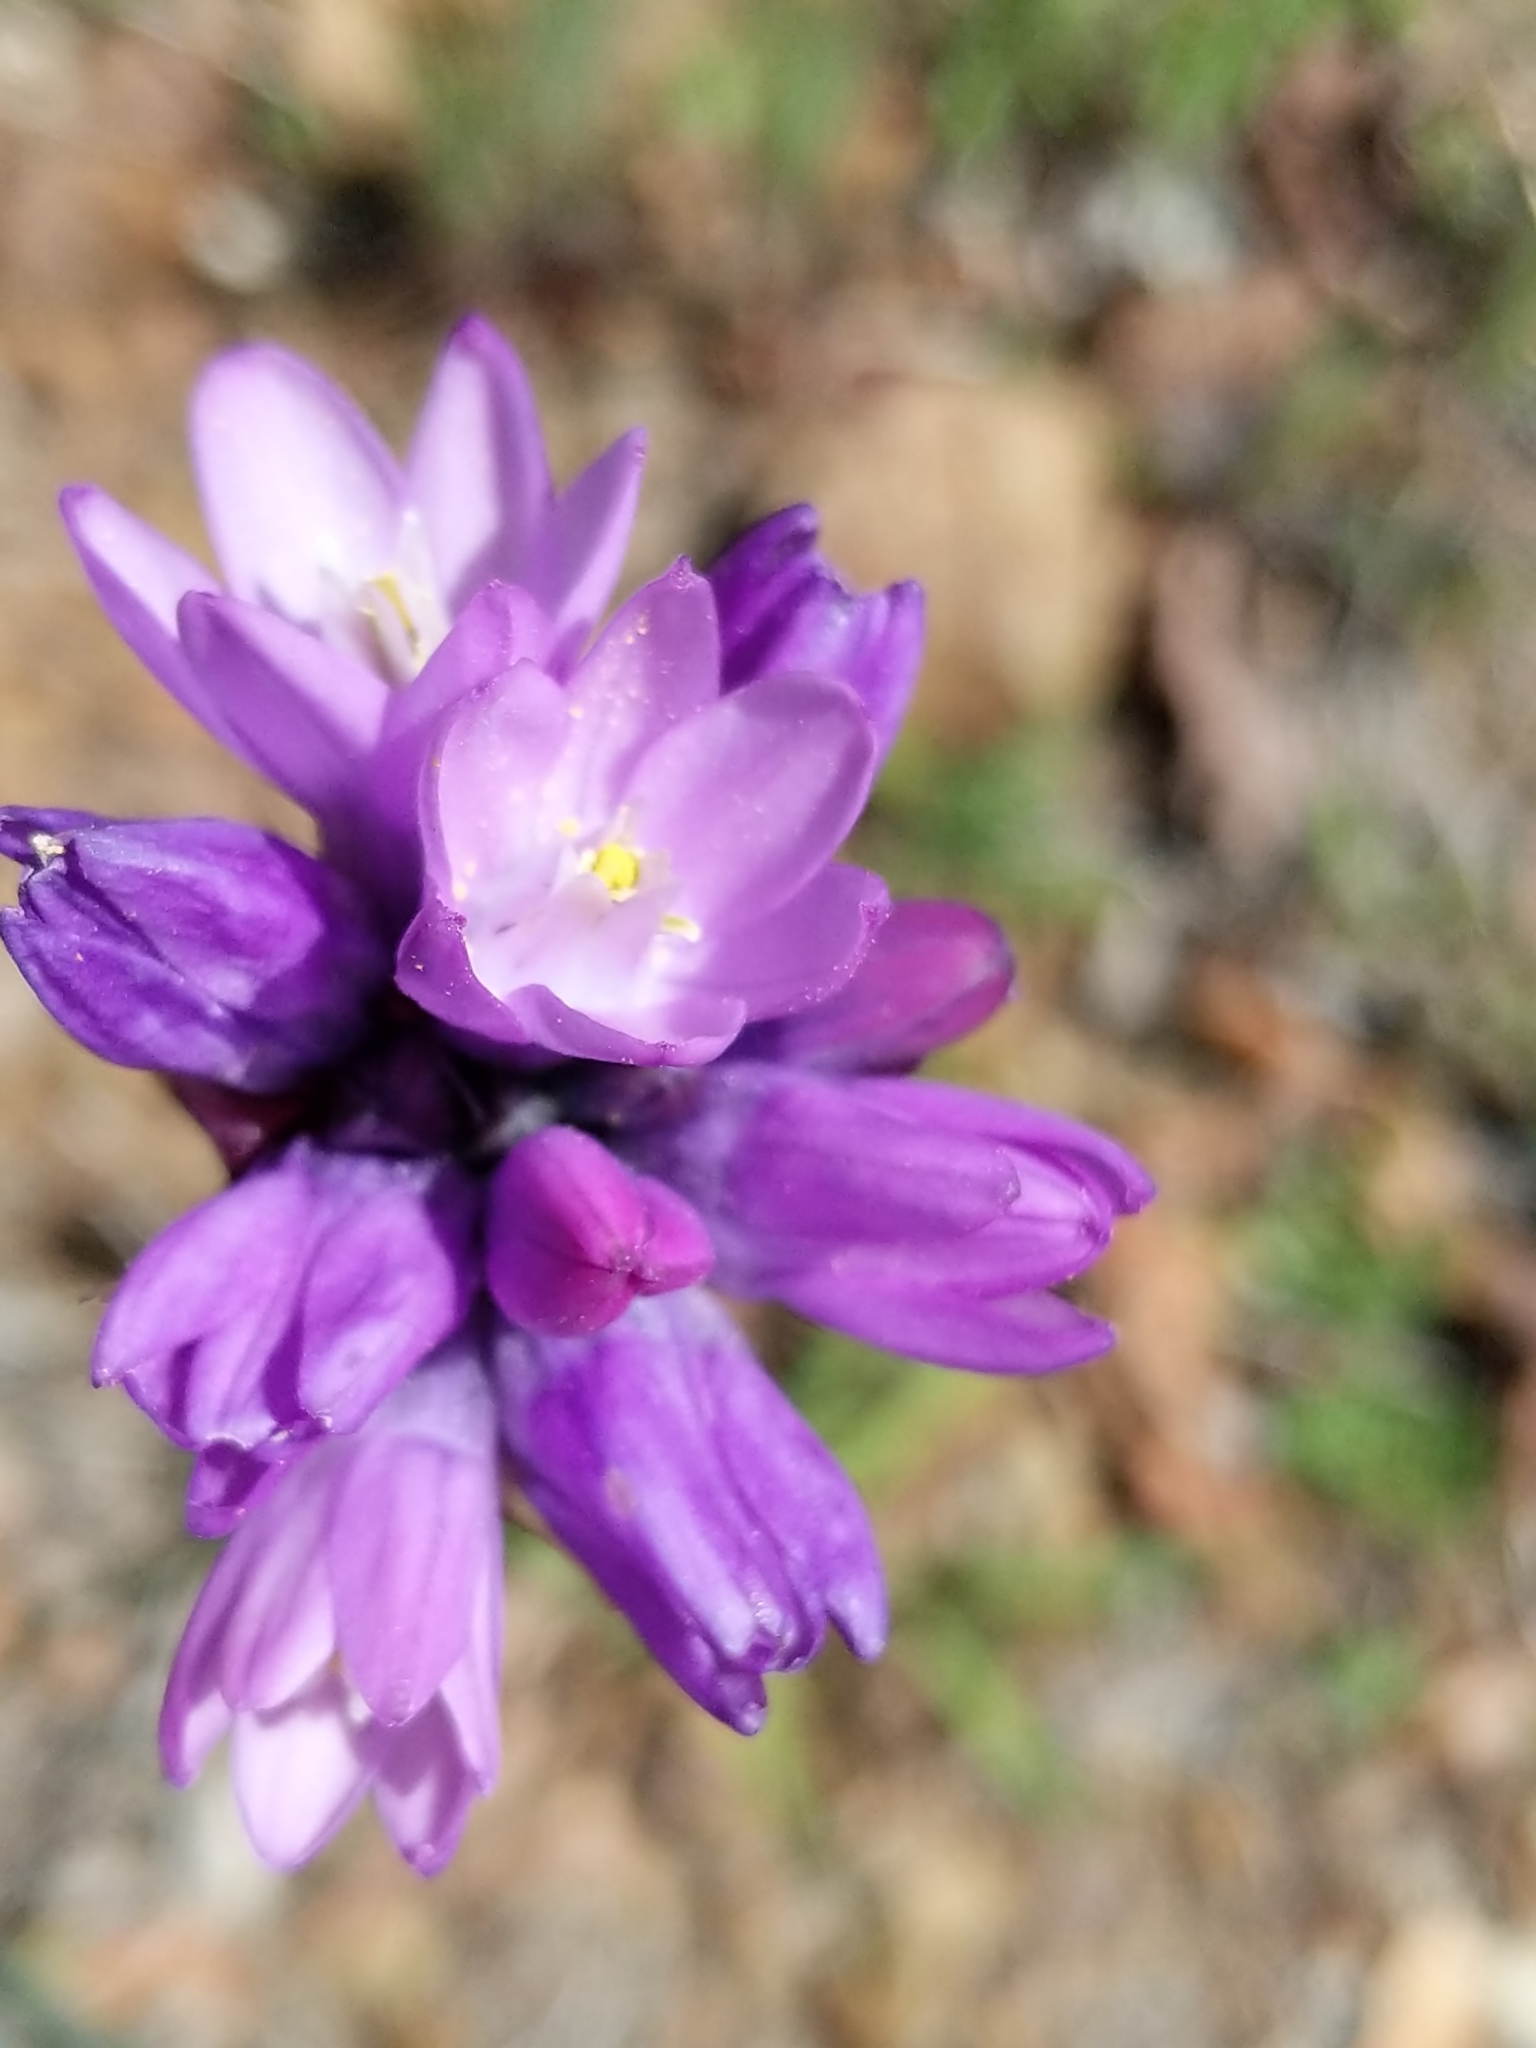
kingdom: Plantae
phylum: Tracheophyta
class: Liliopsida
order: Asparagales
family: Asparagaceae
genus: Dipterostemon
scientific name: Dipterostemon capitatus
